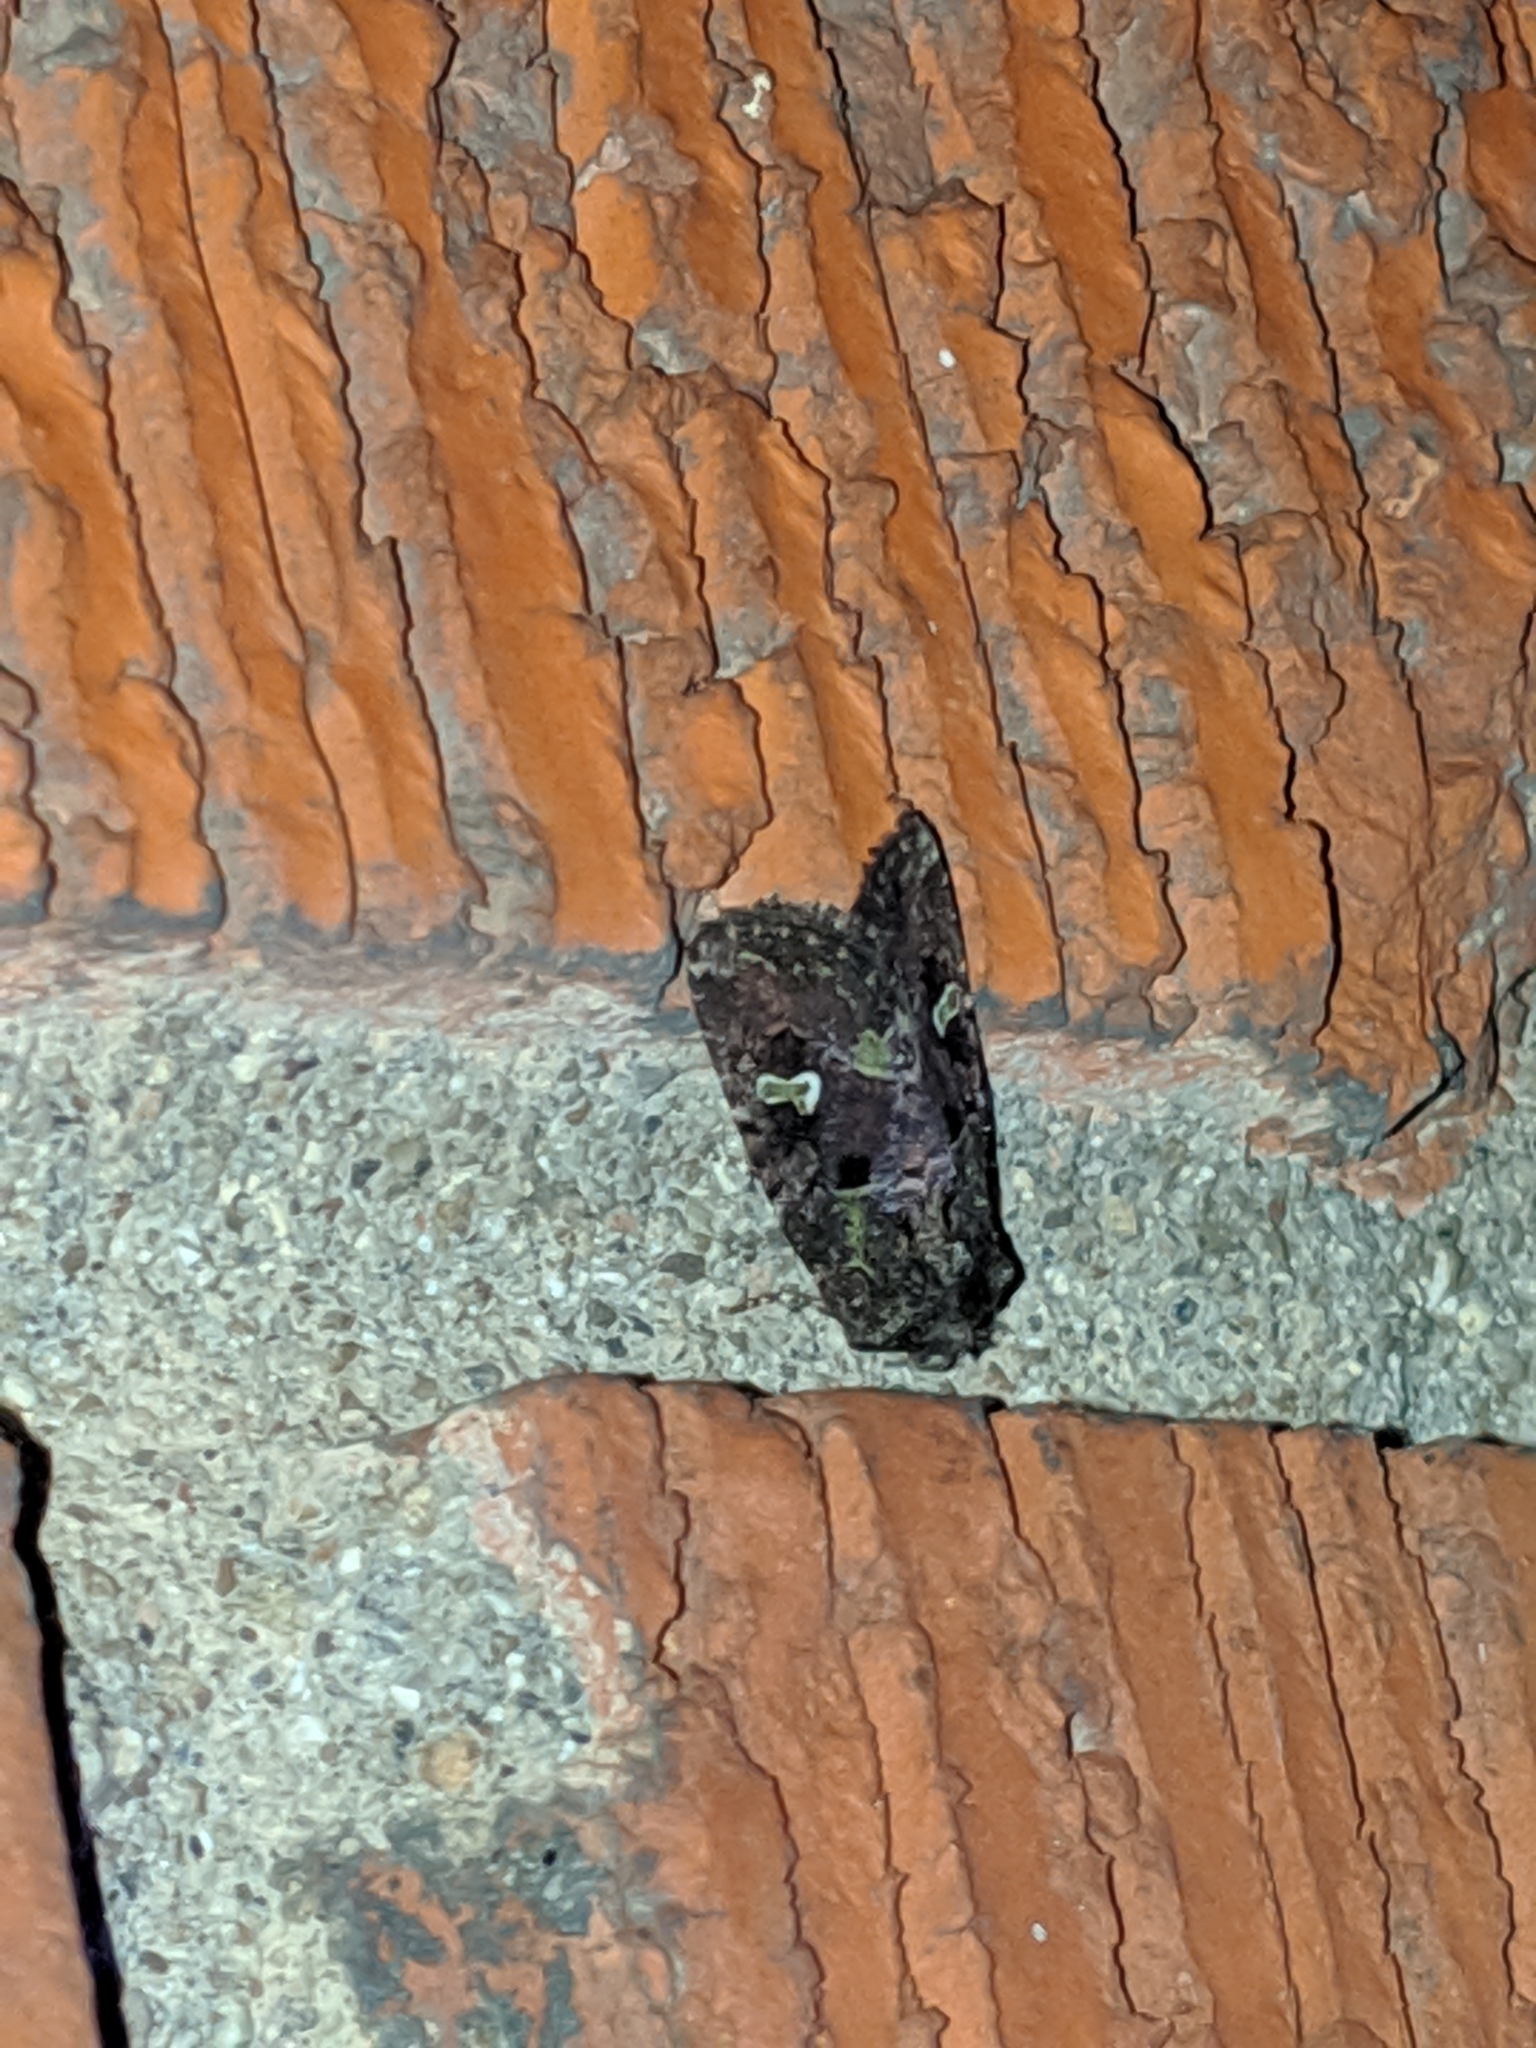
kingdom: Animalia
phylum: Arthropoda
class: Insecta
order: Lepidoptera
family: Noctuidae
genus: Lacinipolia
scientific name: Lacinipolia renigera
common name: Kidney-spotted minor
